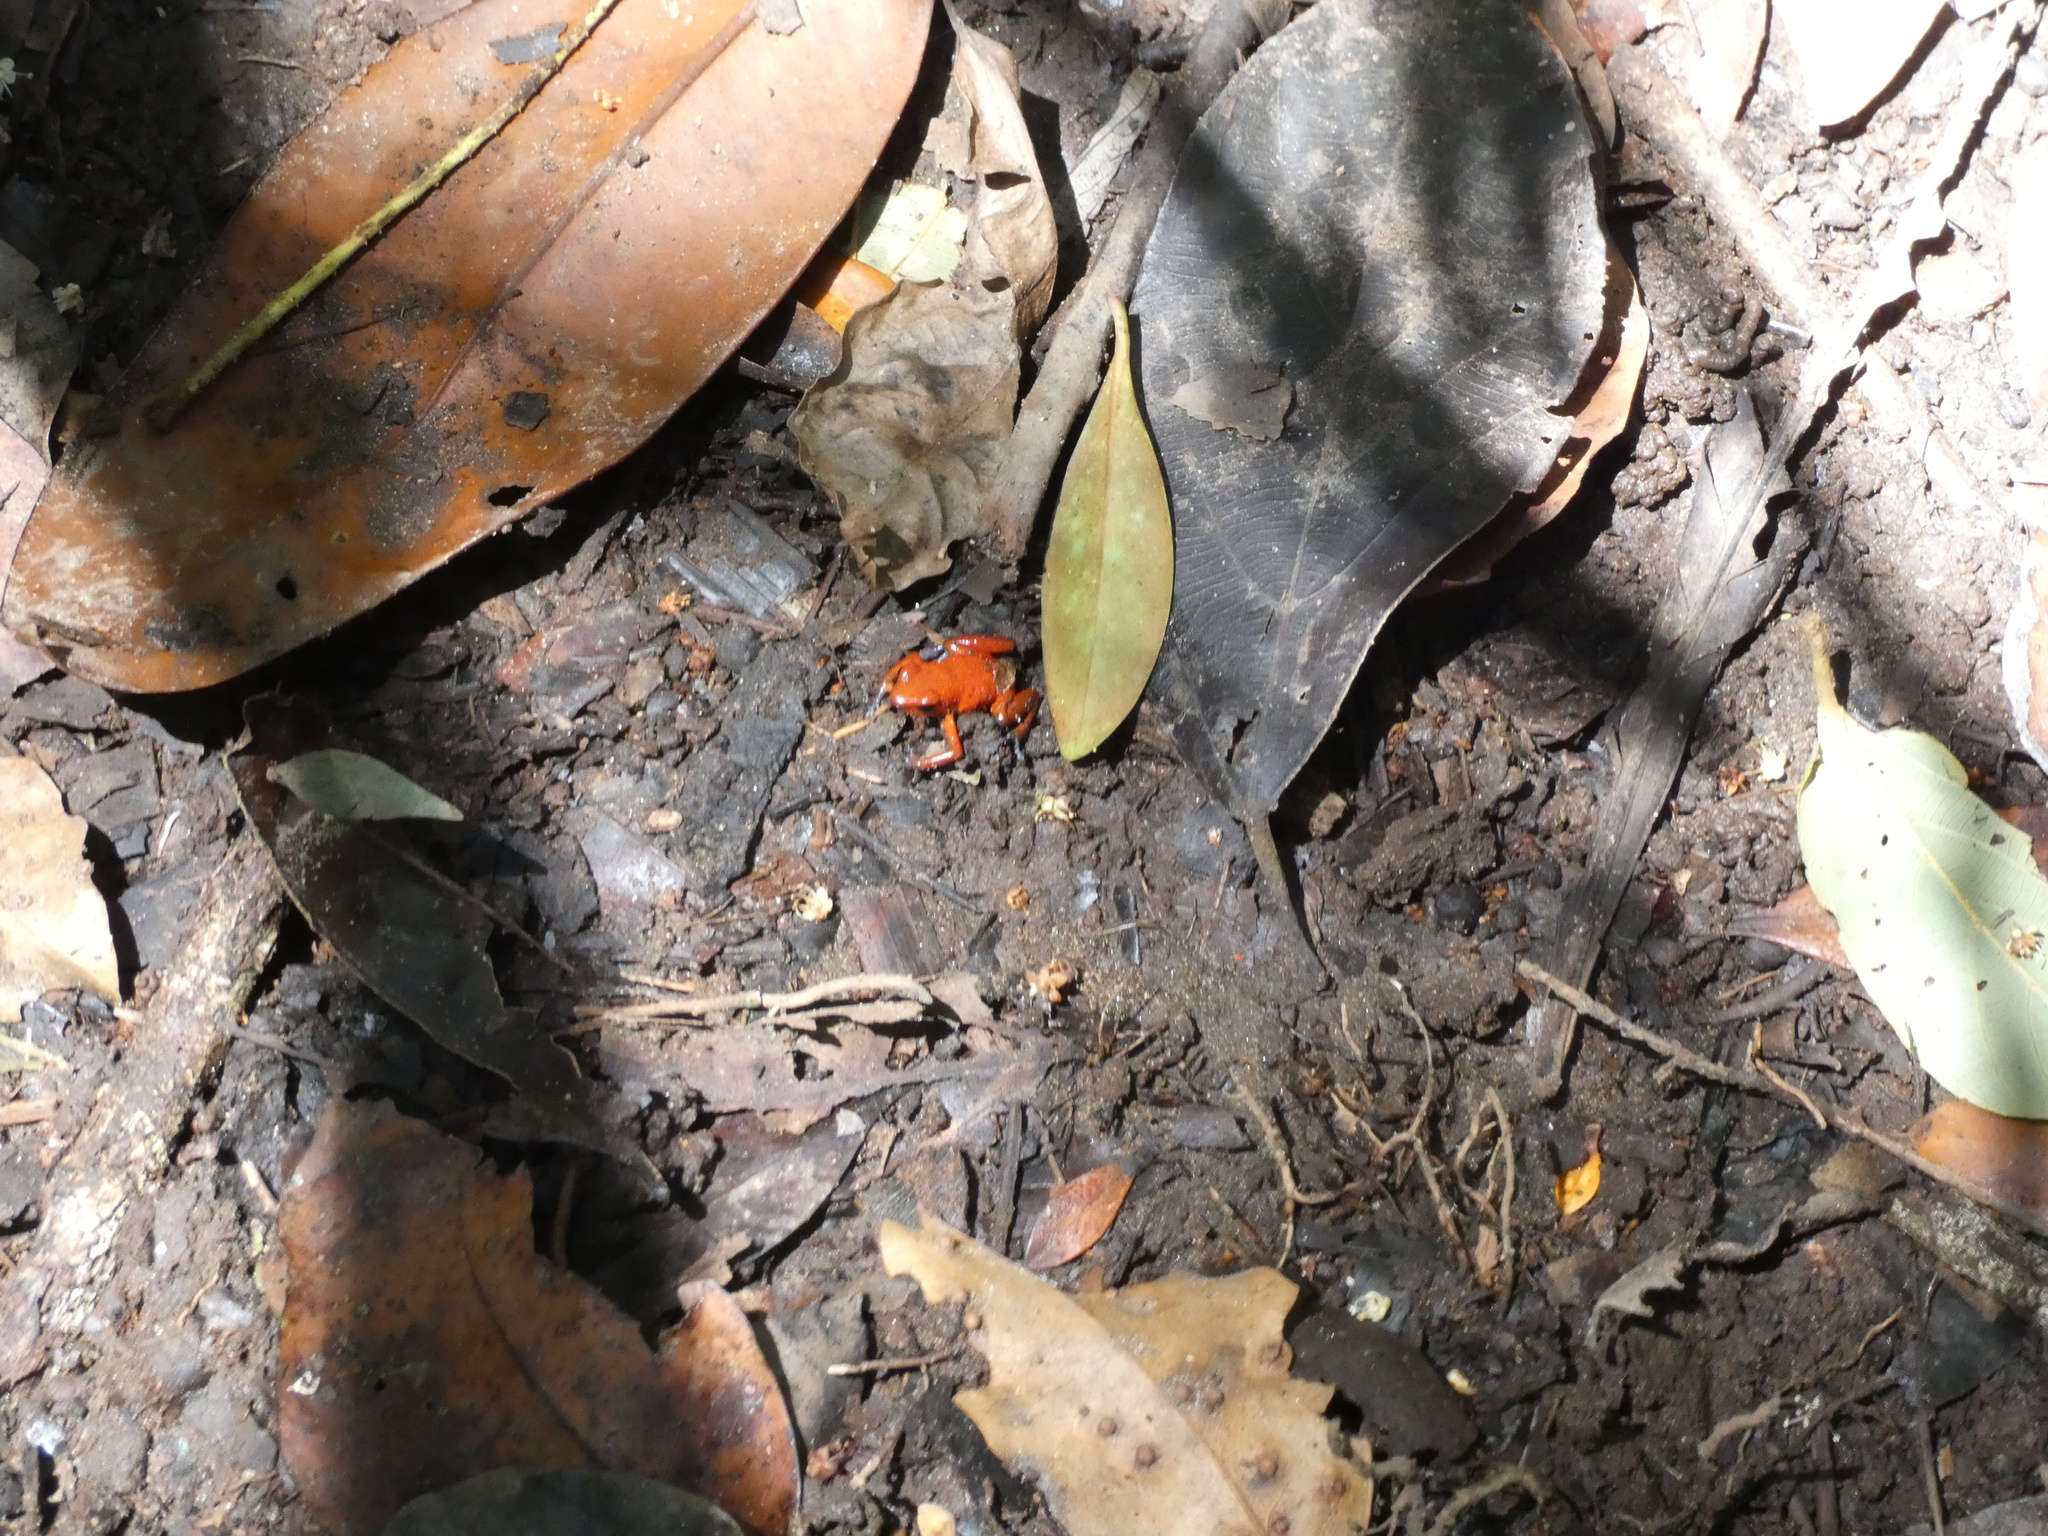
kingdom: Animalia
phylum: Chordata
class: Amphibia
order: Anura
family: Dendrobatidae
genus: Oophaga
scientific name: Oophaga pumilio
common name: Flaming poison frog
